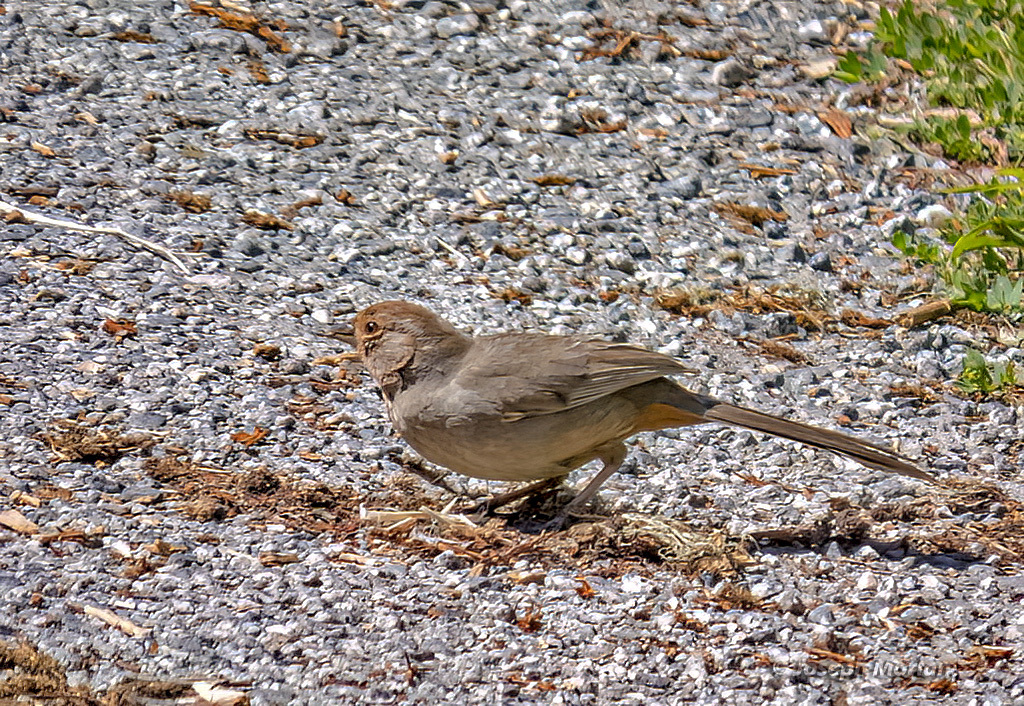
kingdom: Animalia
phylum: Chordata
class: Aves
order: Passeriformes
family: Passerellidae
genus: Melozone
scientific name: Melozone crissalis
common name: California towhee
